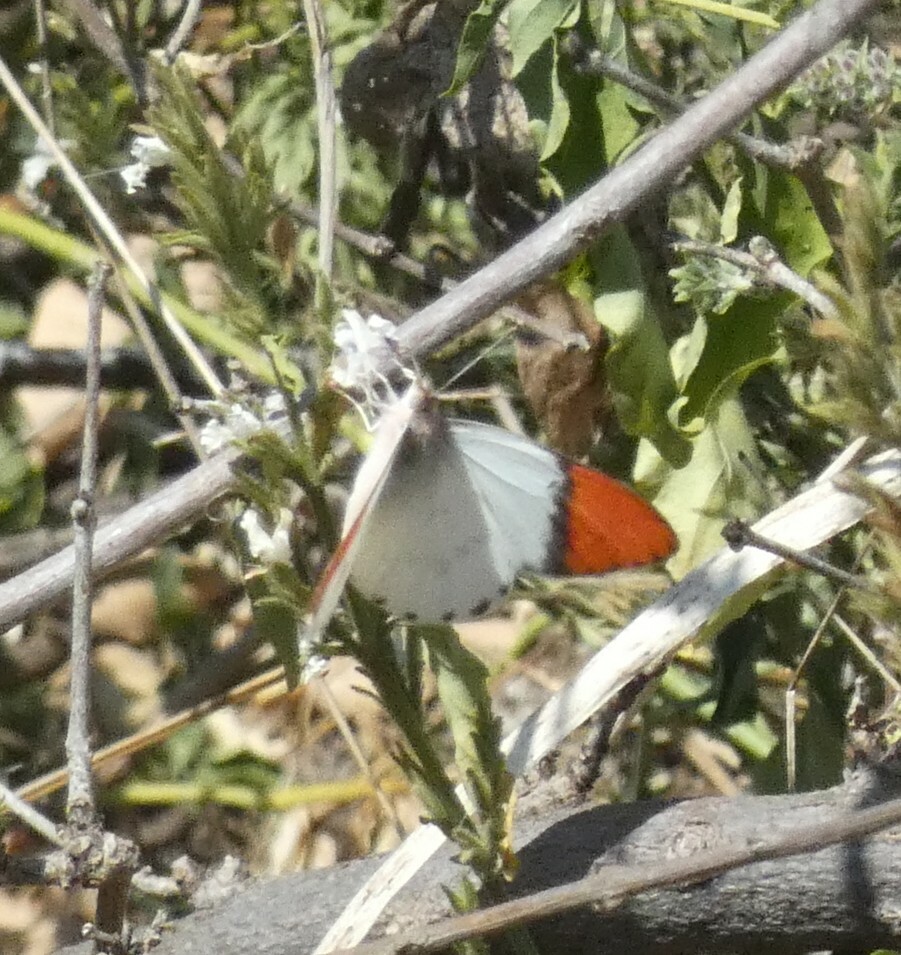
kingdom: Animalia
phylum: Arthropoda
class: Insecta
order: Lepidoptera
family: Pieridae
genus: Colotis
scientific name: Colotis annae
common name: Scarlet tip
